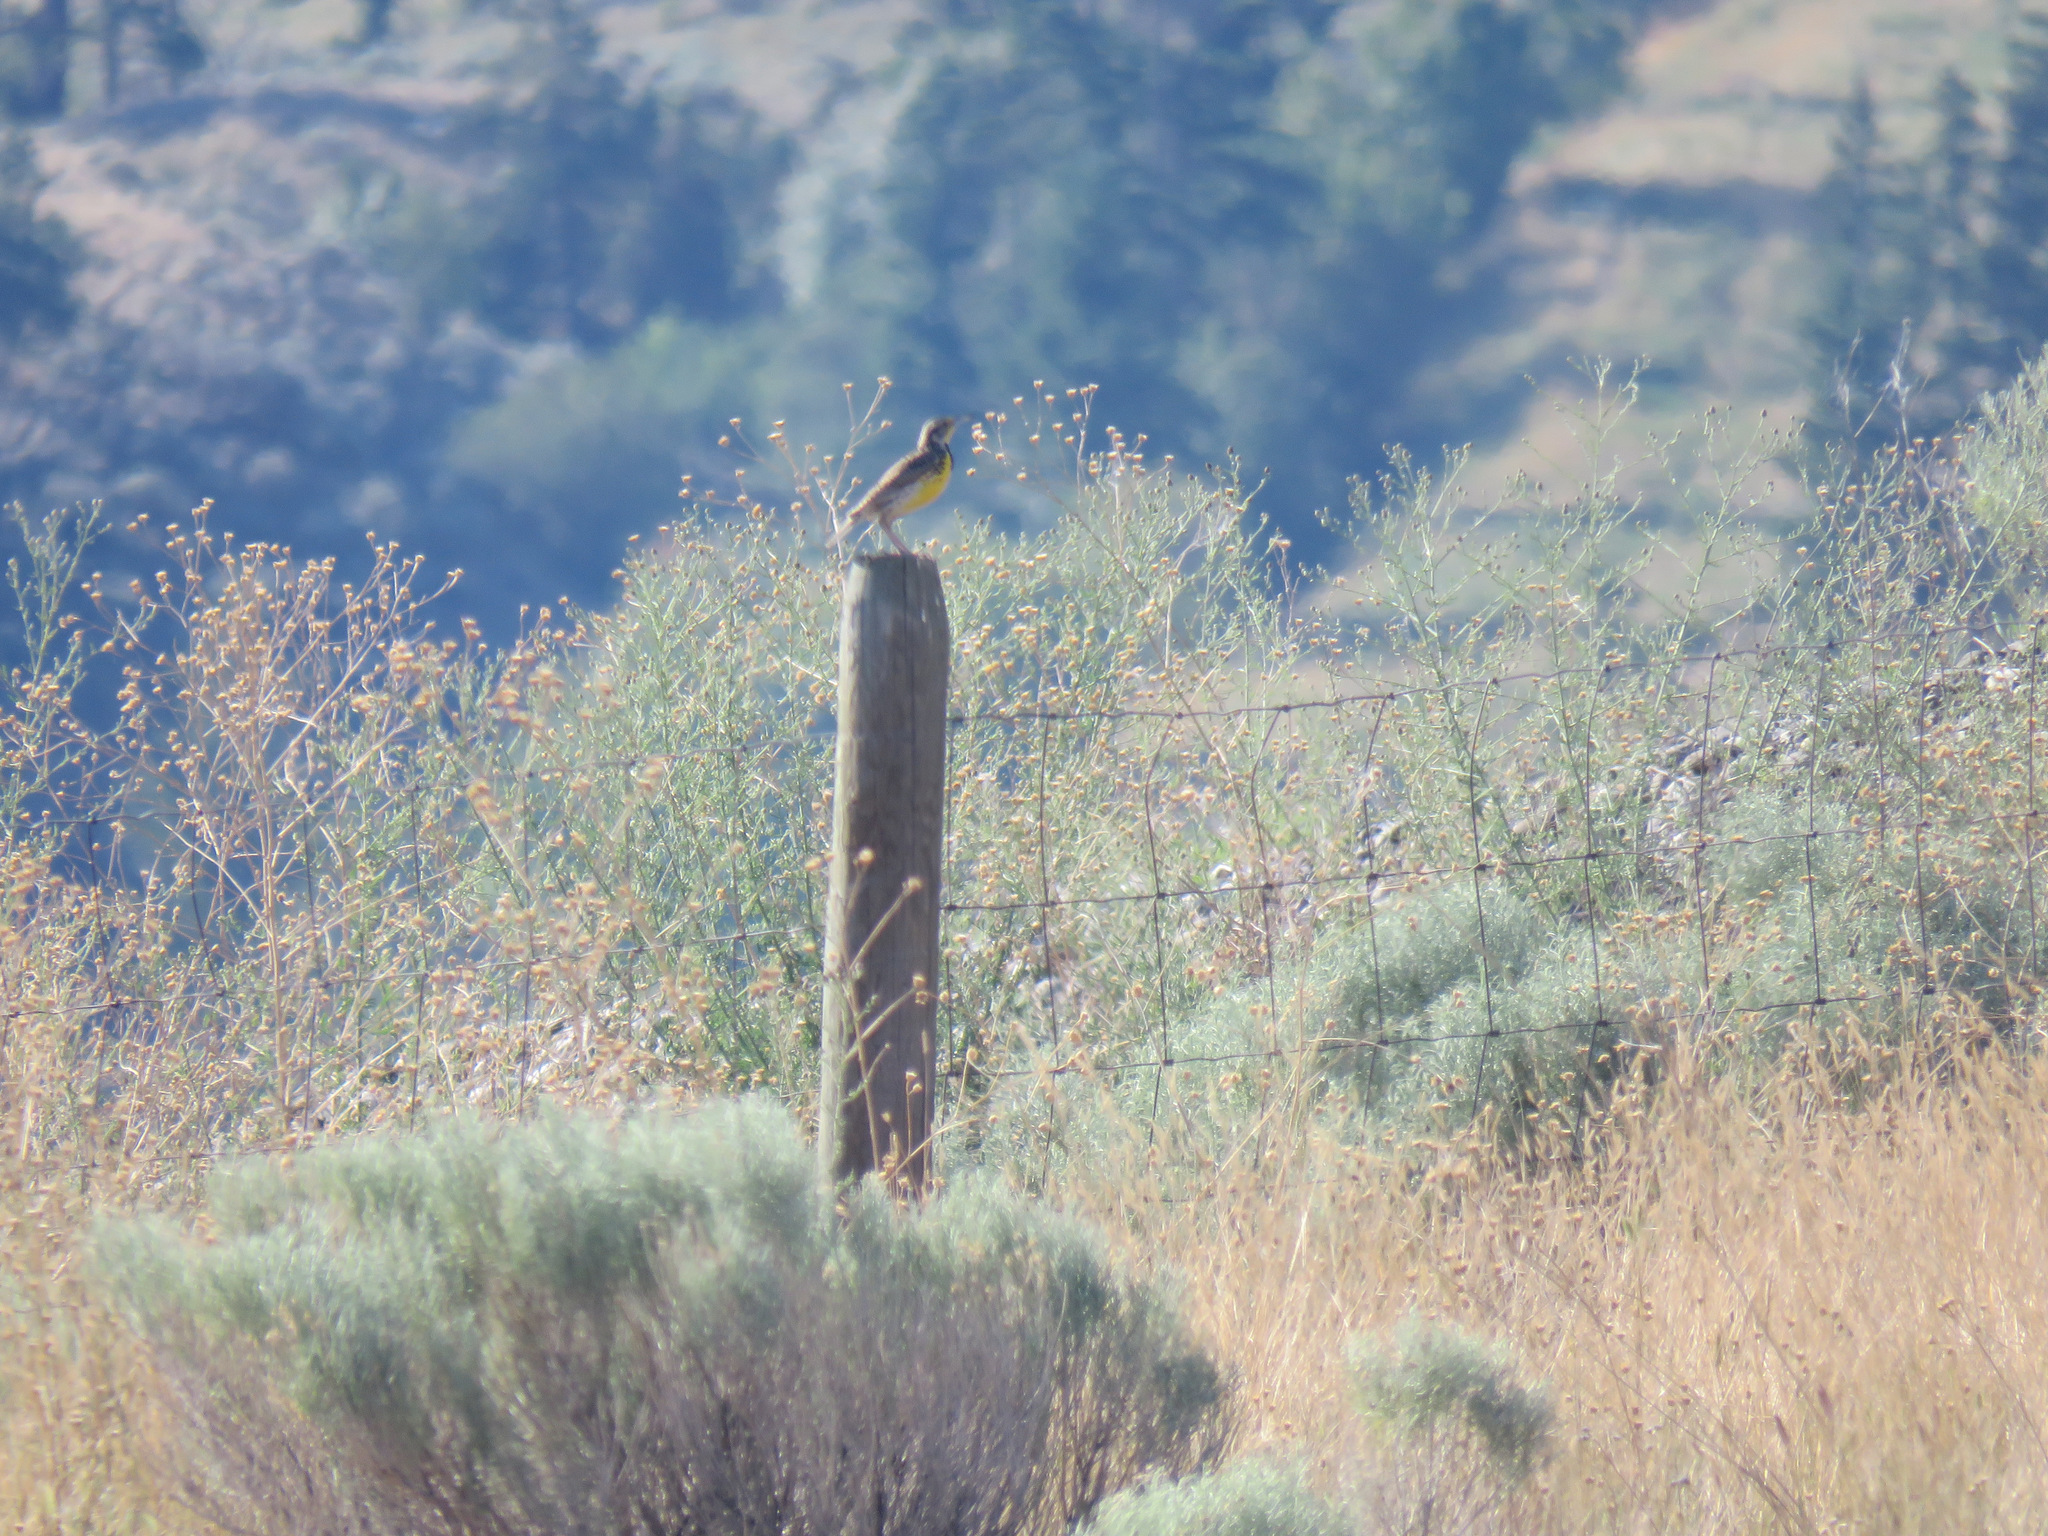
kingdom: Animalia
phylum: Chordata
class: Aves
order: Passeriformes
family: Icteridae
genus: Sturnella
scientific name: Sturnella neglecta
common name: Western meadowlark
